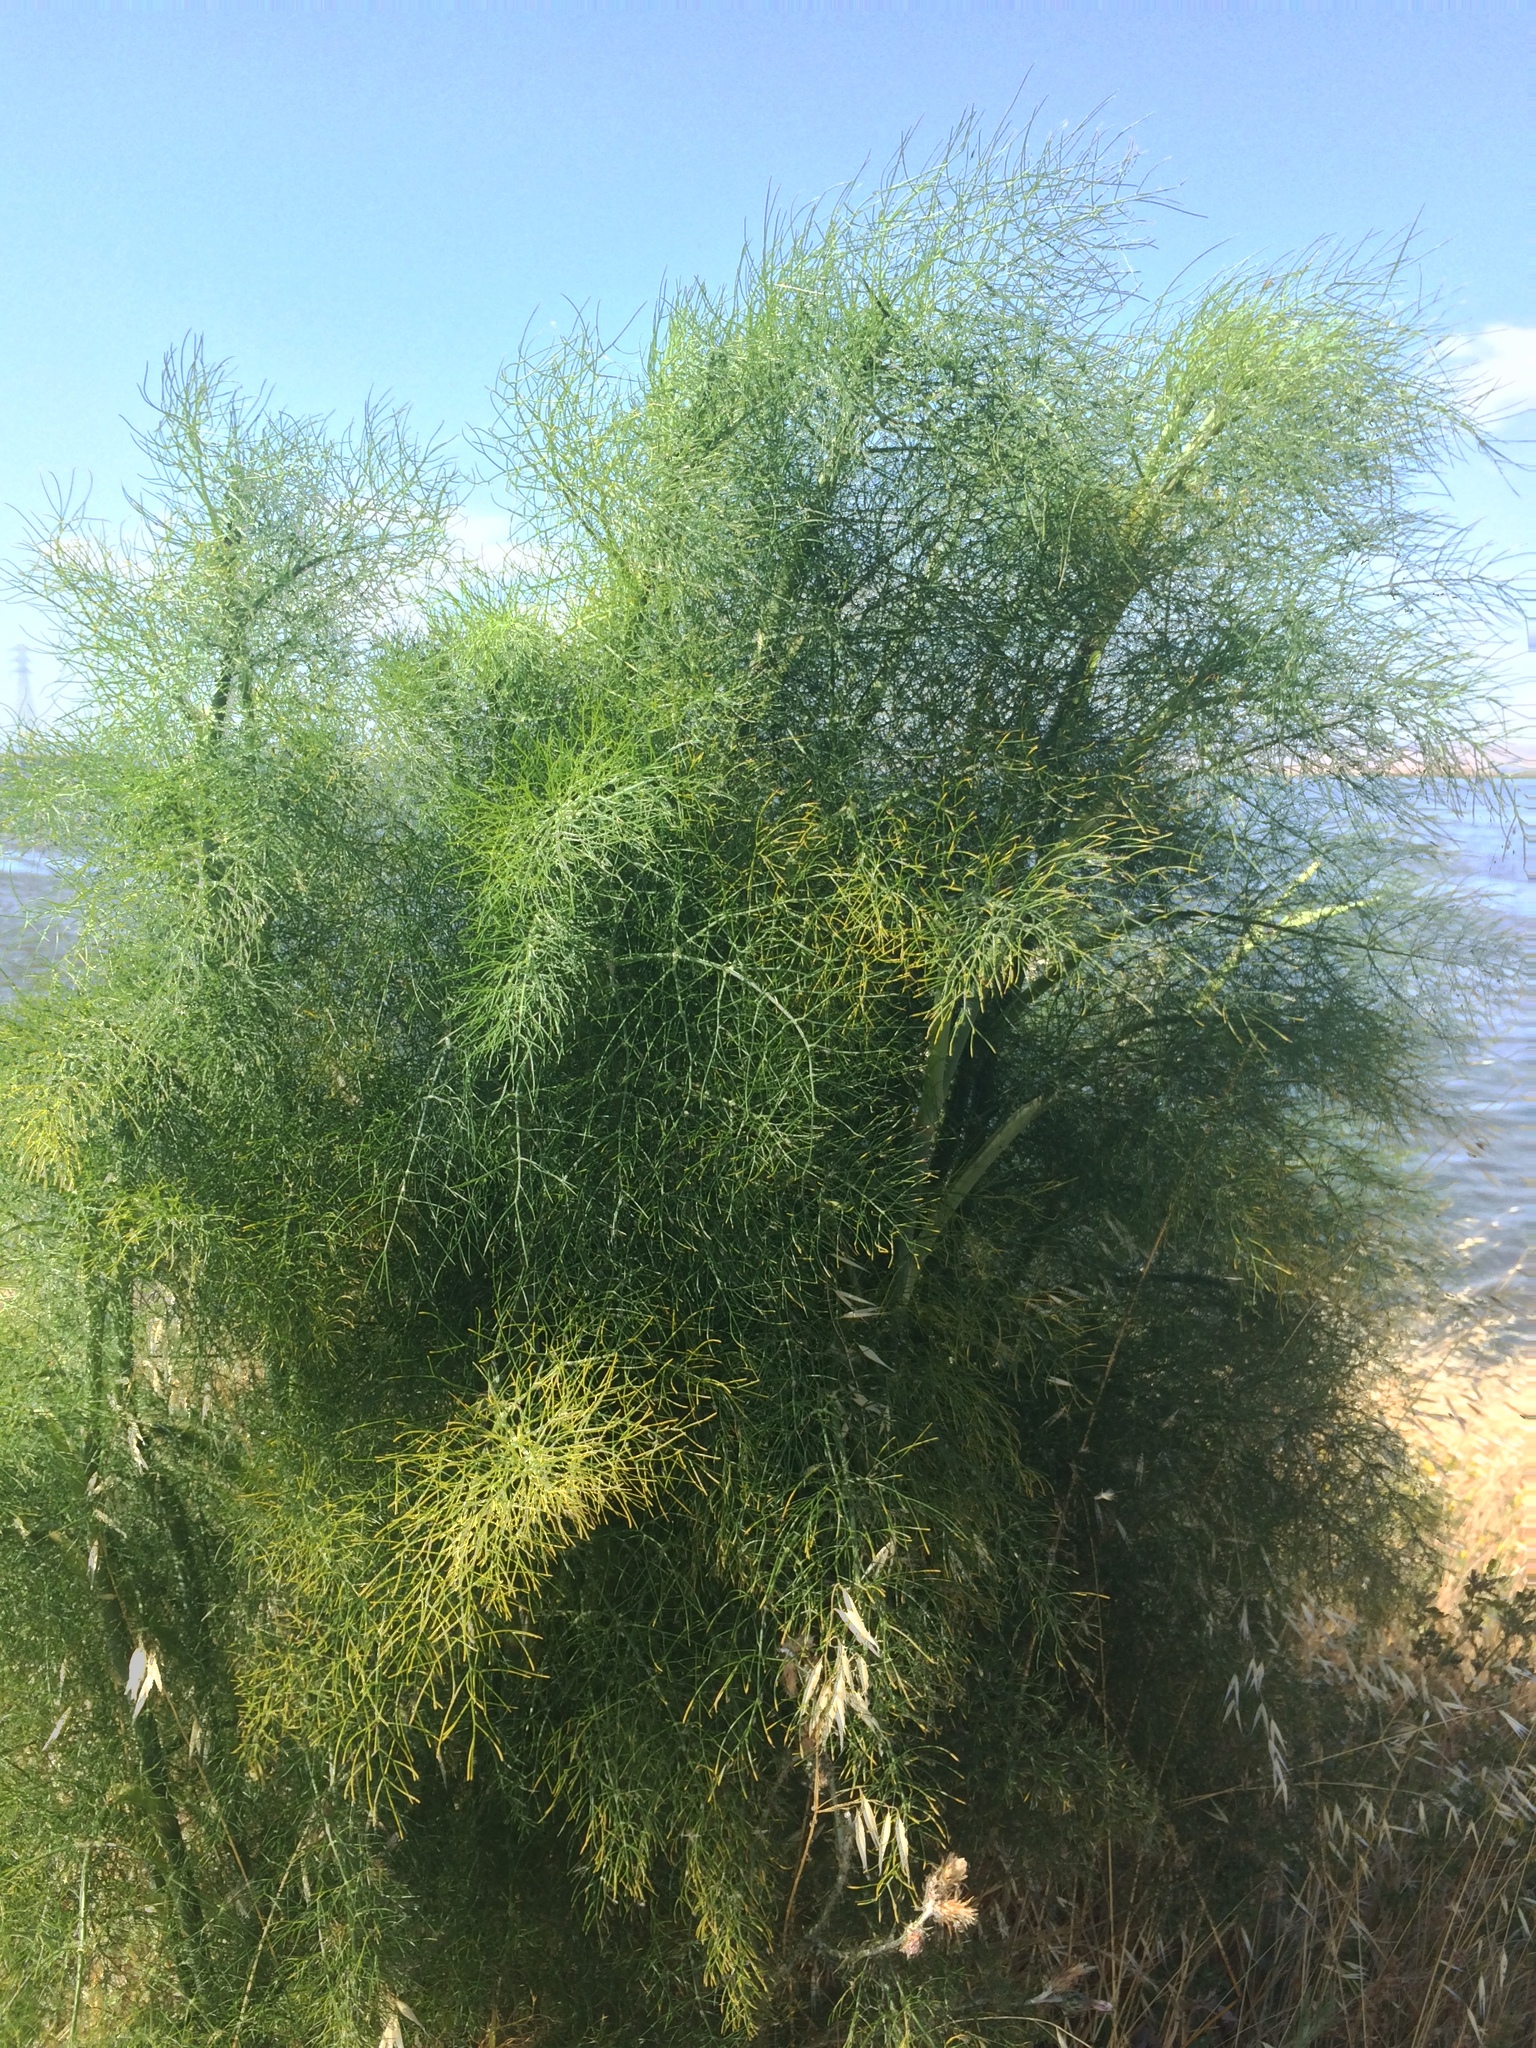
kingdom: Plantae
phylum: Tracheophyta
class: Magnoliopsida
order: Apiales
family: Apiaceae
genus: Foeniculum
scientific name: Foeniculum vulgare
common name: Fennel
